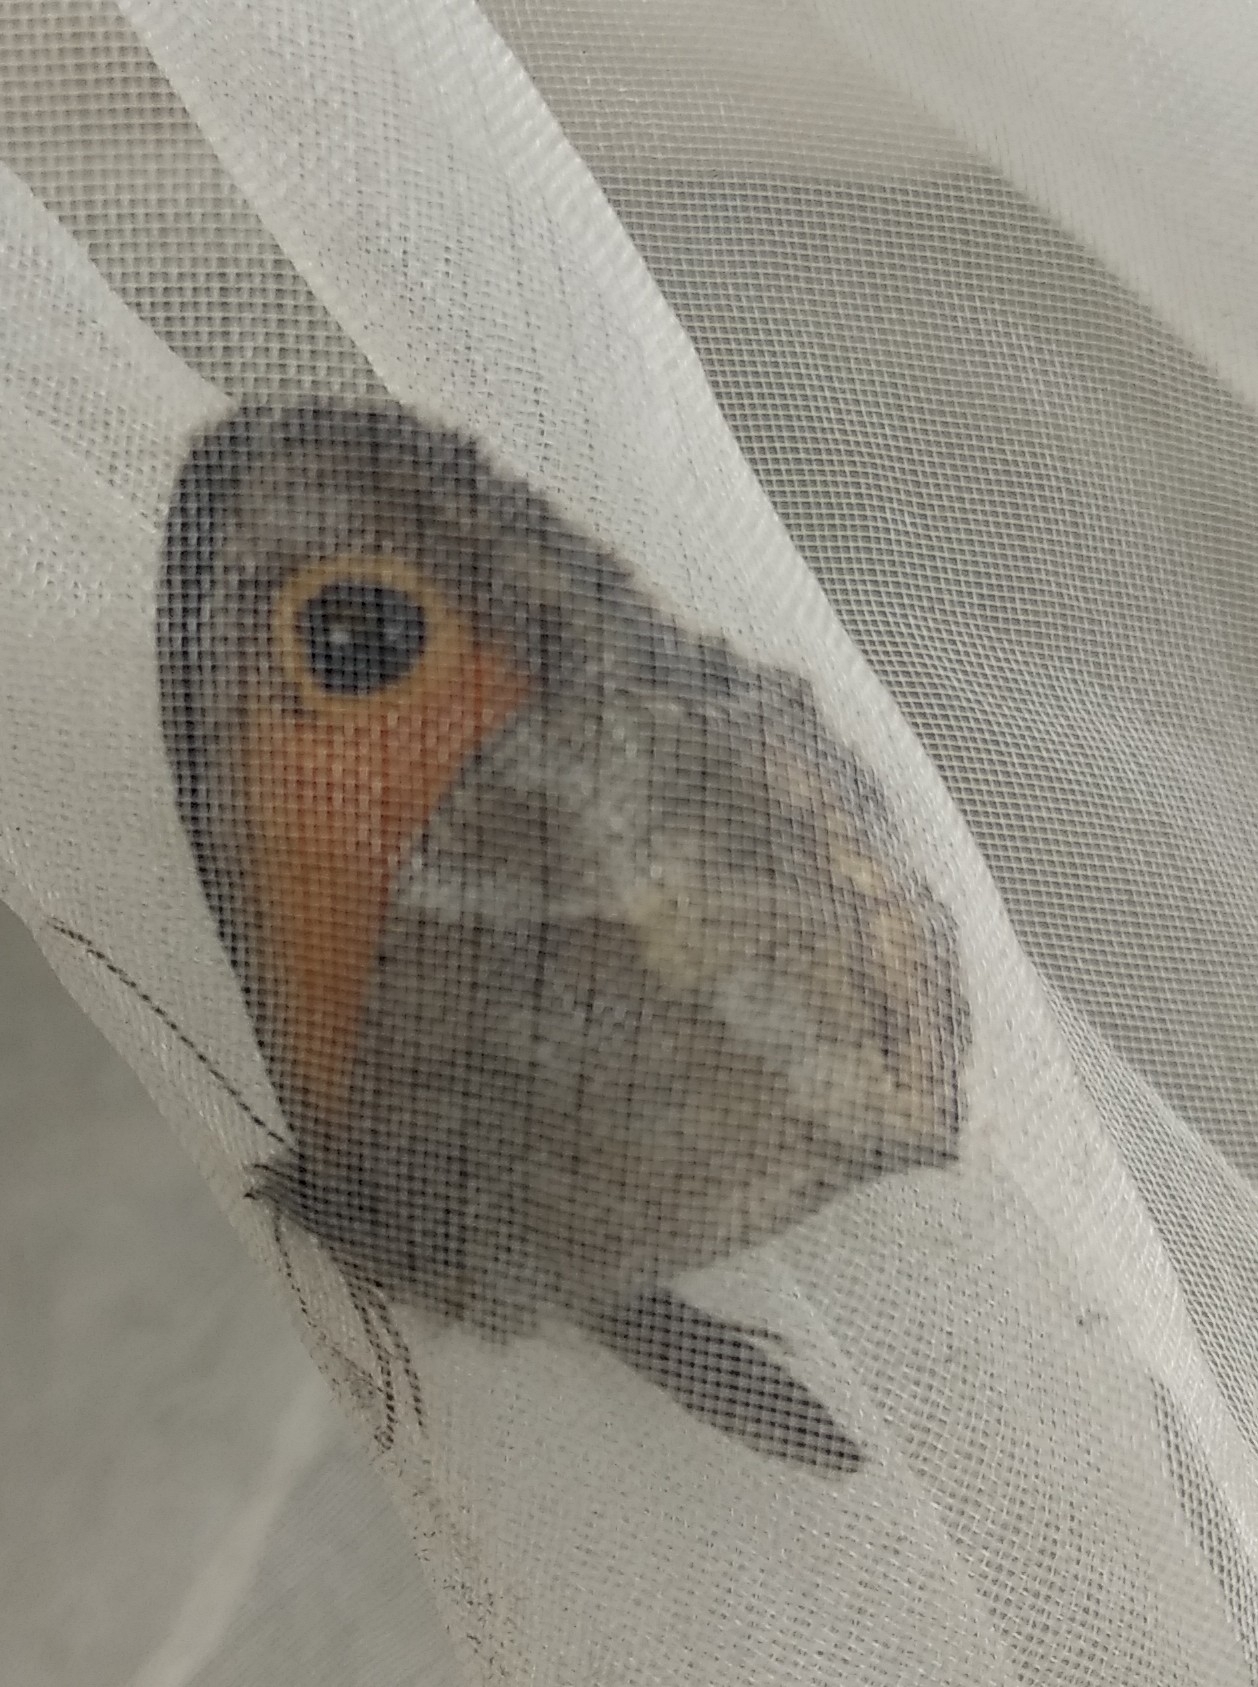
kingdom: Animalia
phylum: Arthropoda
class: Insecta
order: Lepidoptera
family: Nymphalidae
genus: Pyronia
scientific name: Pyronia cecilia
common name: Southern gatekeeper
